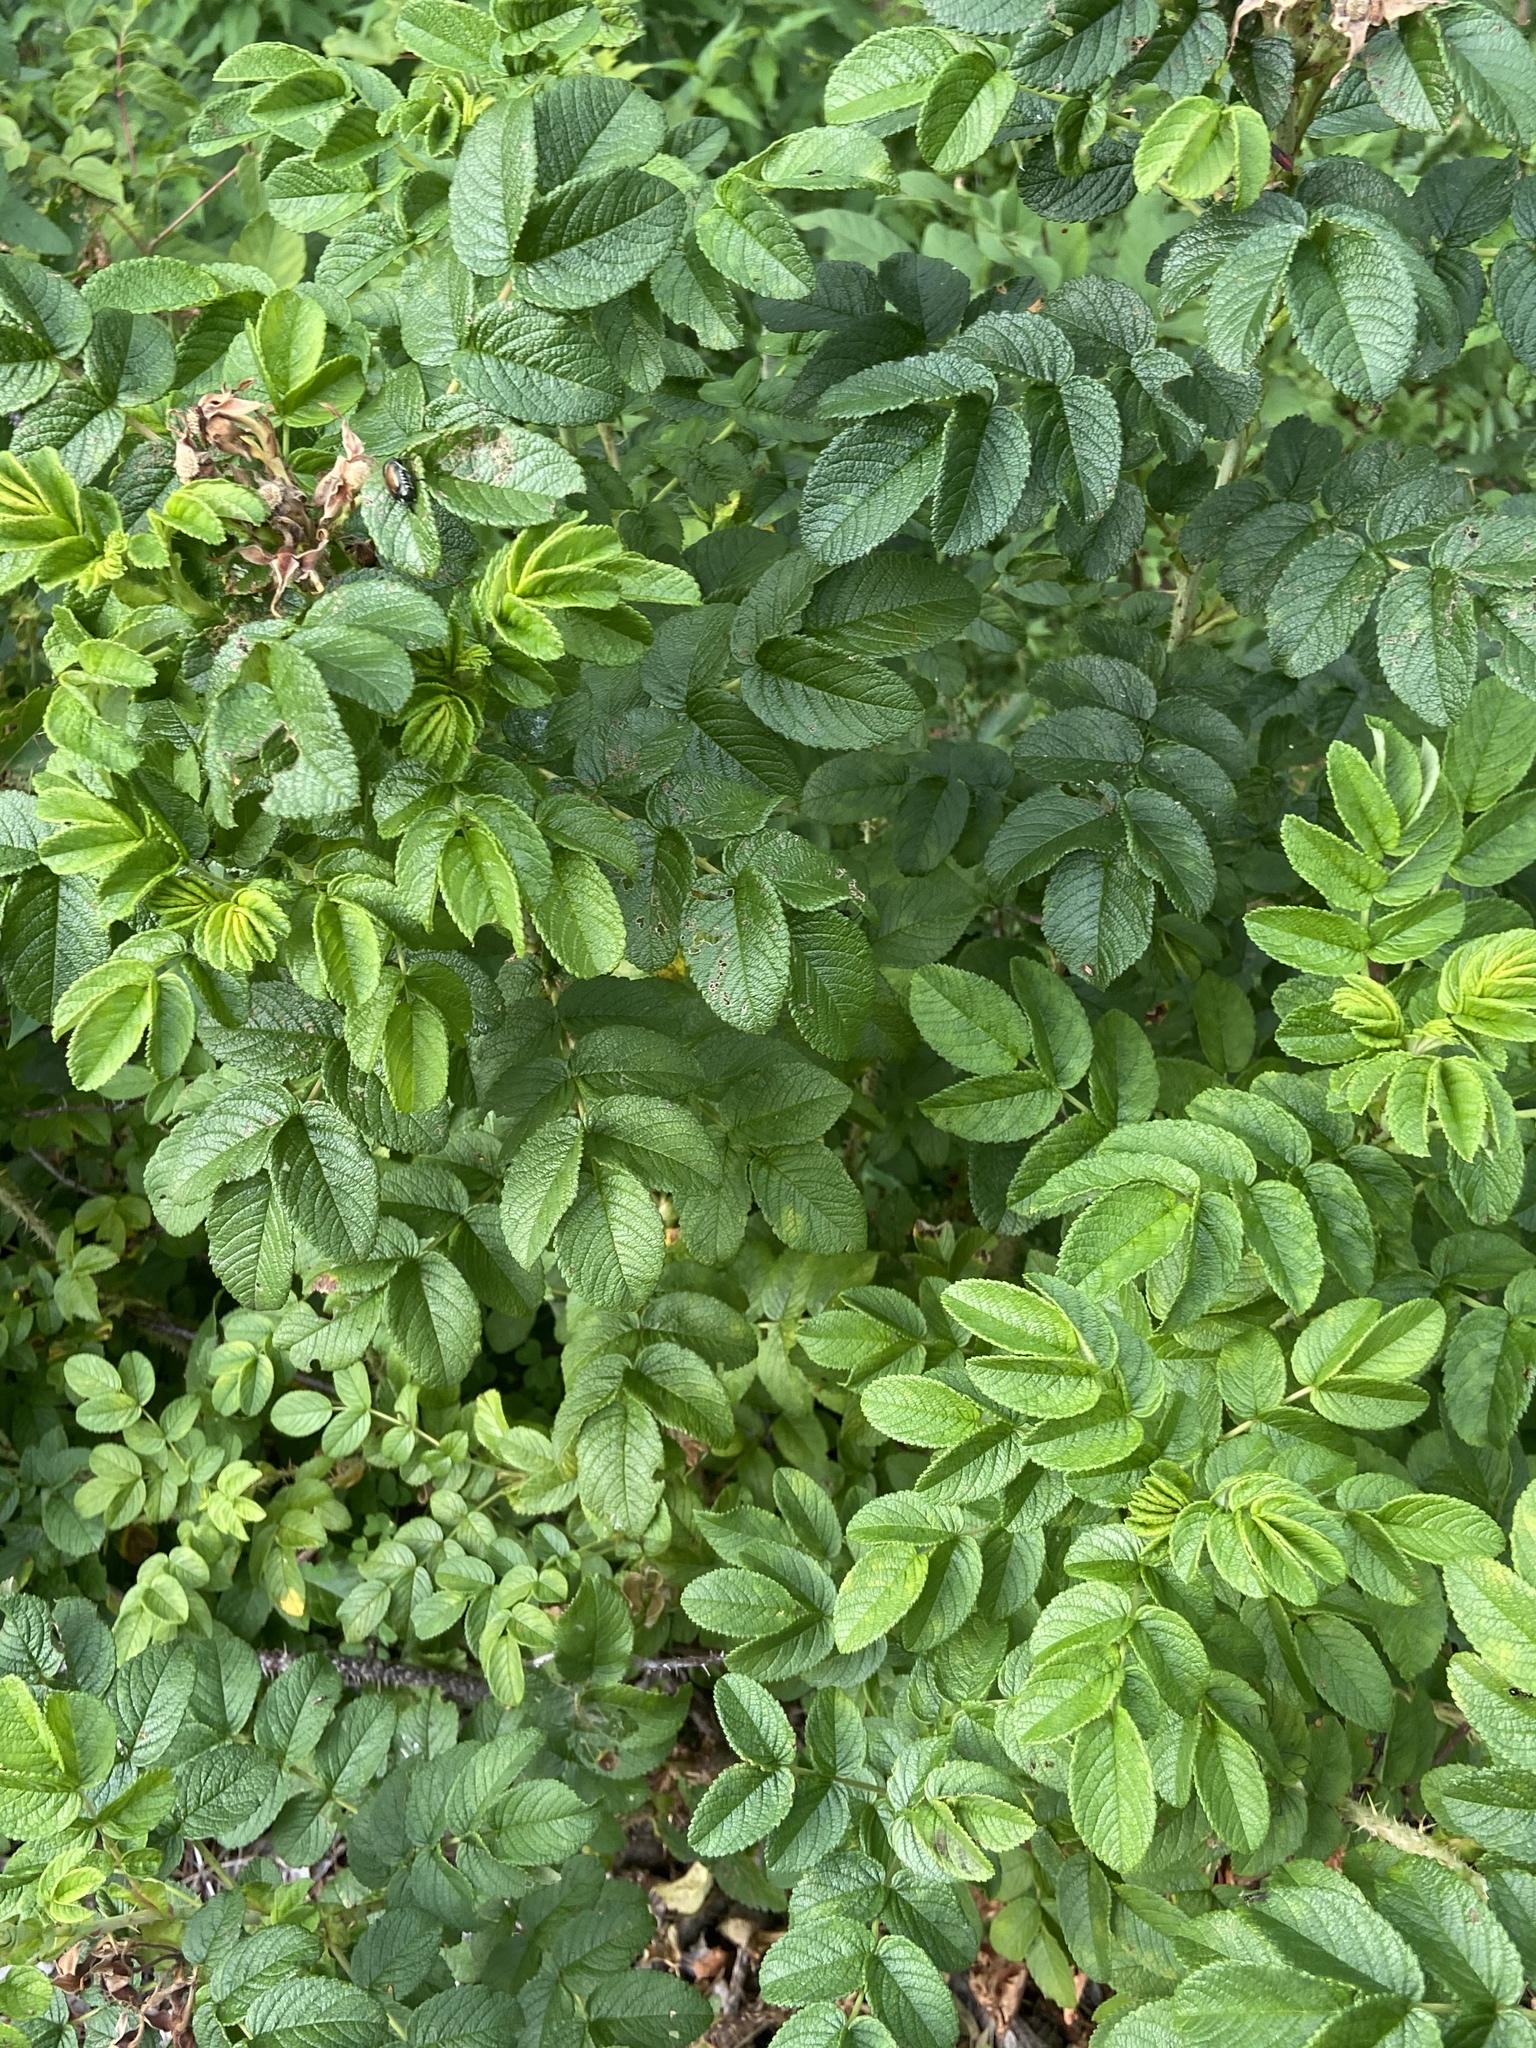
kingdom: Plantae
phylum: Tracheophyta
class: Magnoliopsida
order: Rosales
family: Rosaceae
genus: Rosa
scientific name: Rosa rugosa
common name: Japanese rose
